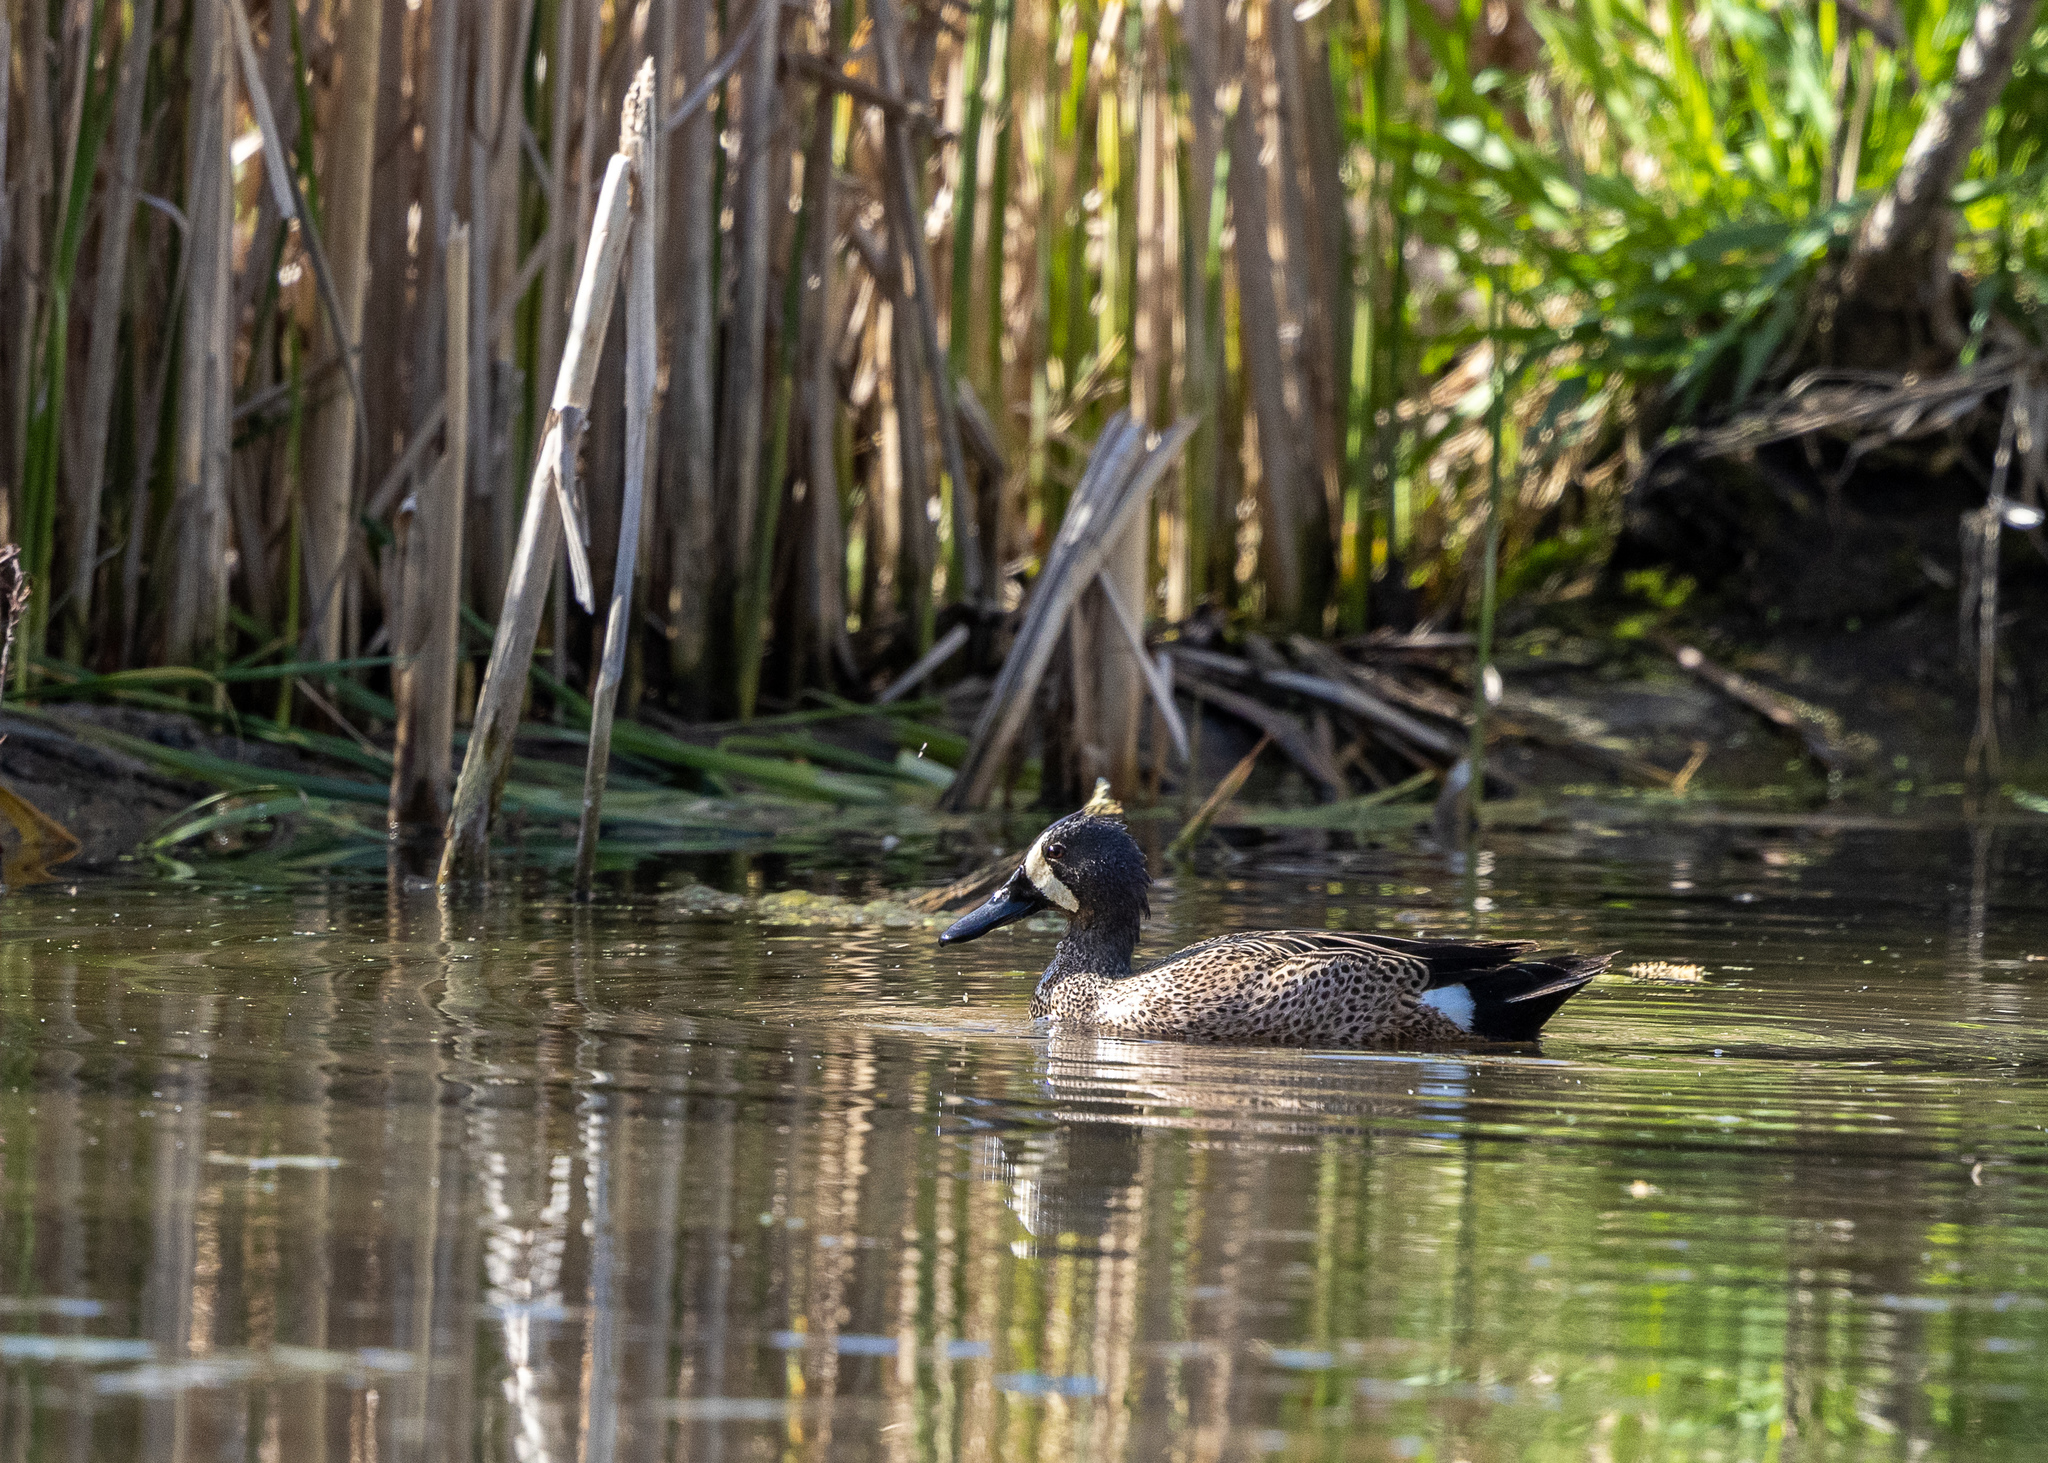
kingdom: Animalia
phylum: Chordata
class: Aves
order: Anseriformes
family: Anatidae
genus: Spatula
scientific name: Spatula discors
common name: Blue-winged teal
